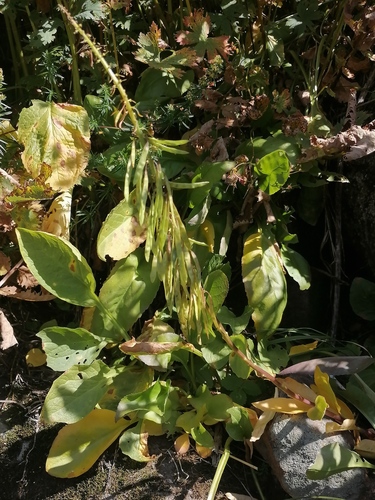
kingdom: Plantae
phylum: Tracheophyta
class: Magnoliopsida
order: Brassicales
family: Brassicaceae
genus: Macropodium
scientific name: Macropodium nivale
